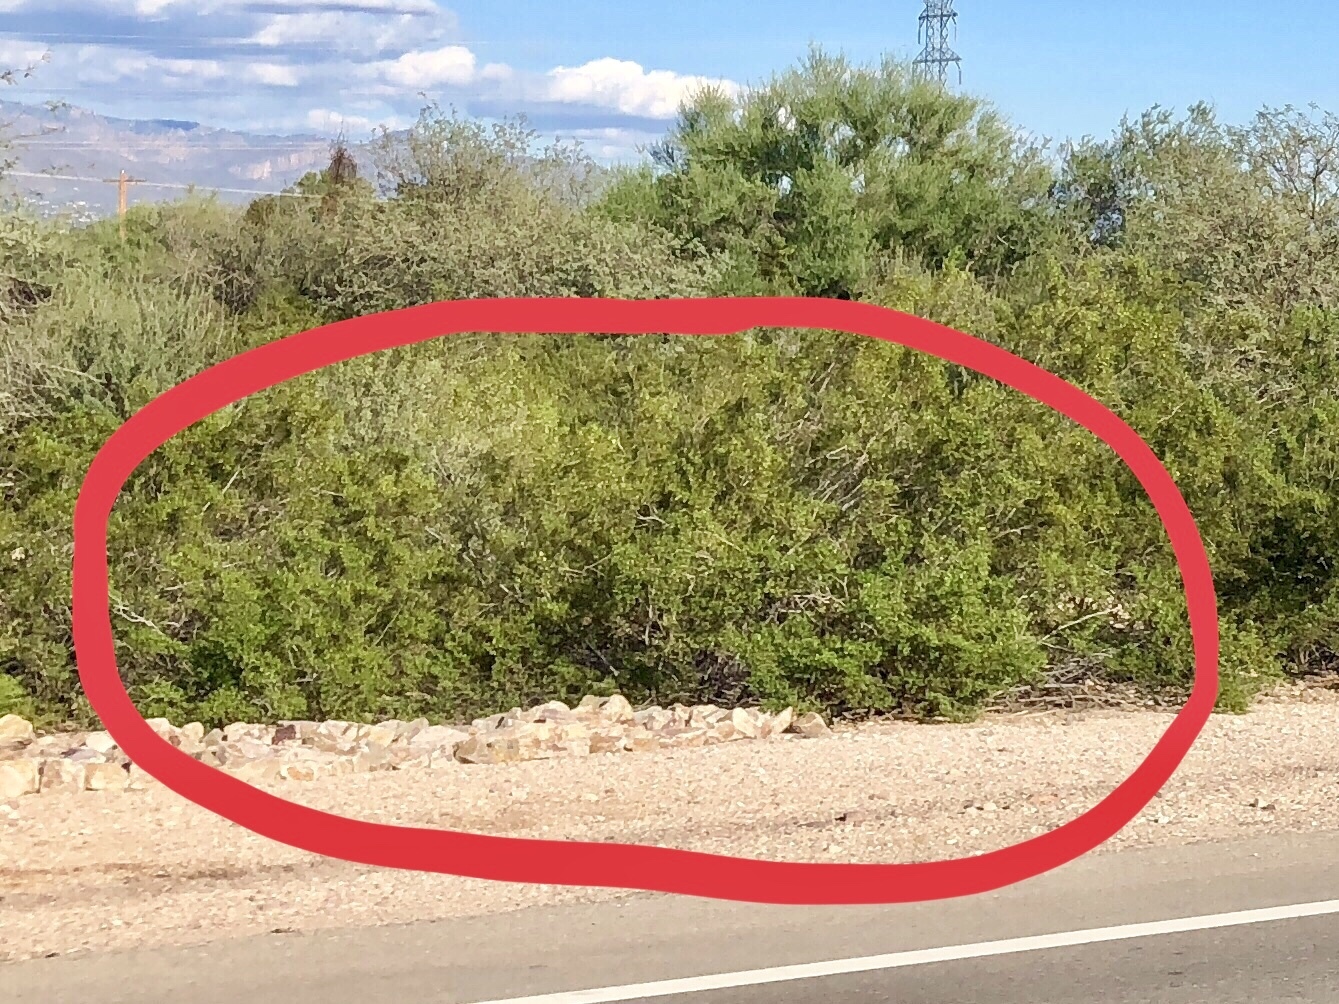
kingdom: Plantae
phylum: Tracheophyta
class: Magnoliopsida
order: Zygophyllales
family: Zygophyllaceae
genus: Larrea
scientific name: Larrea tridentata
